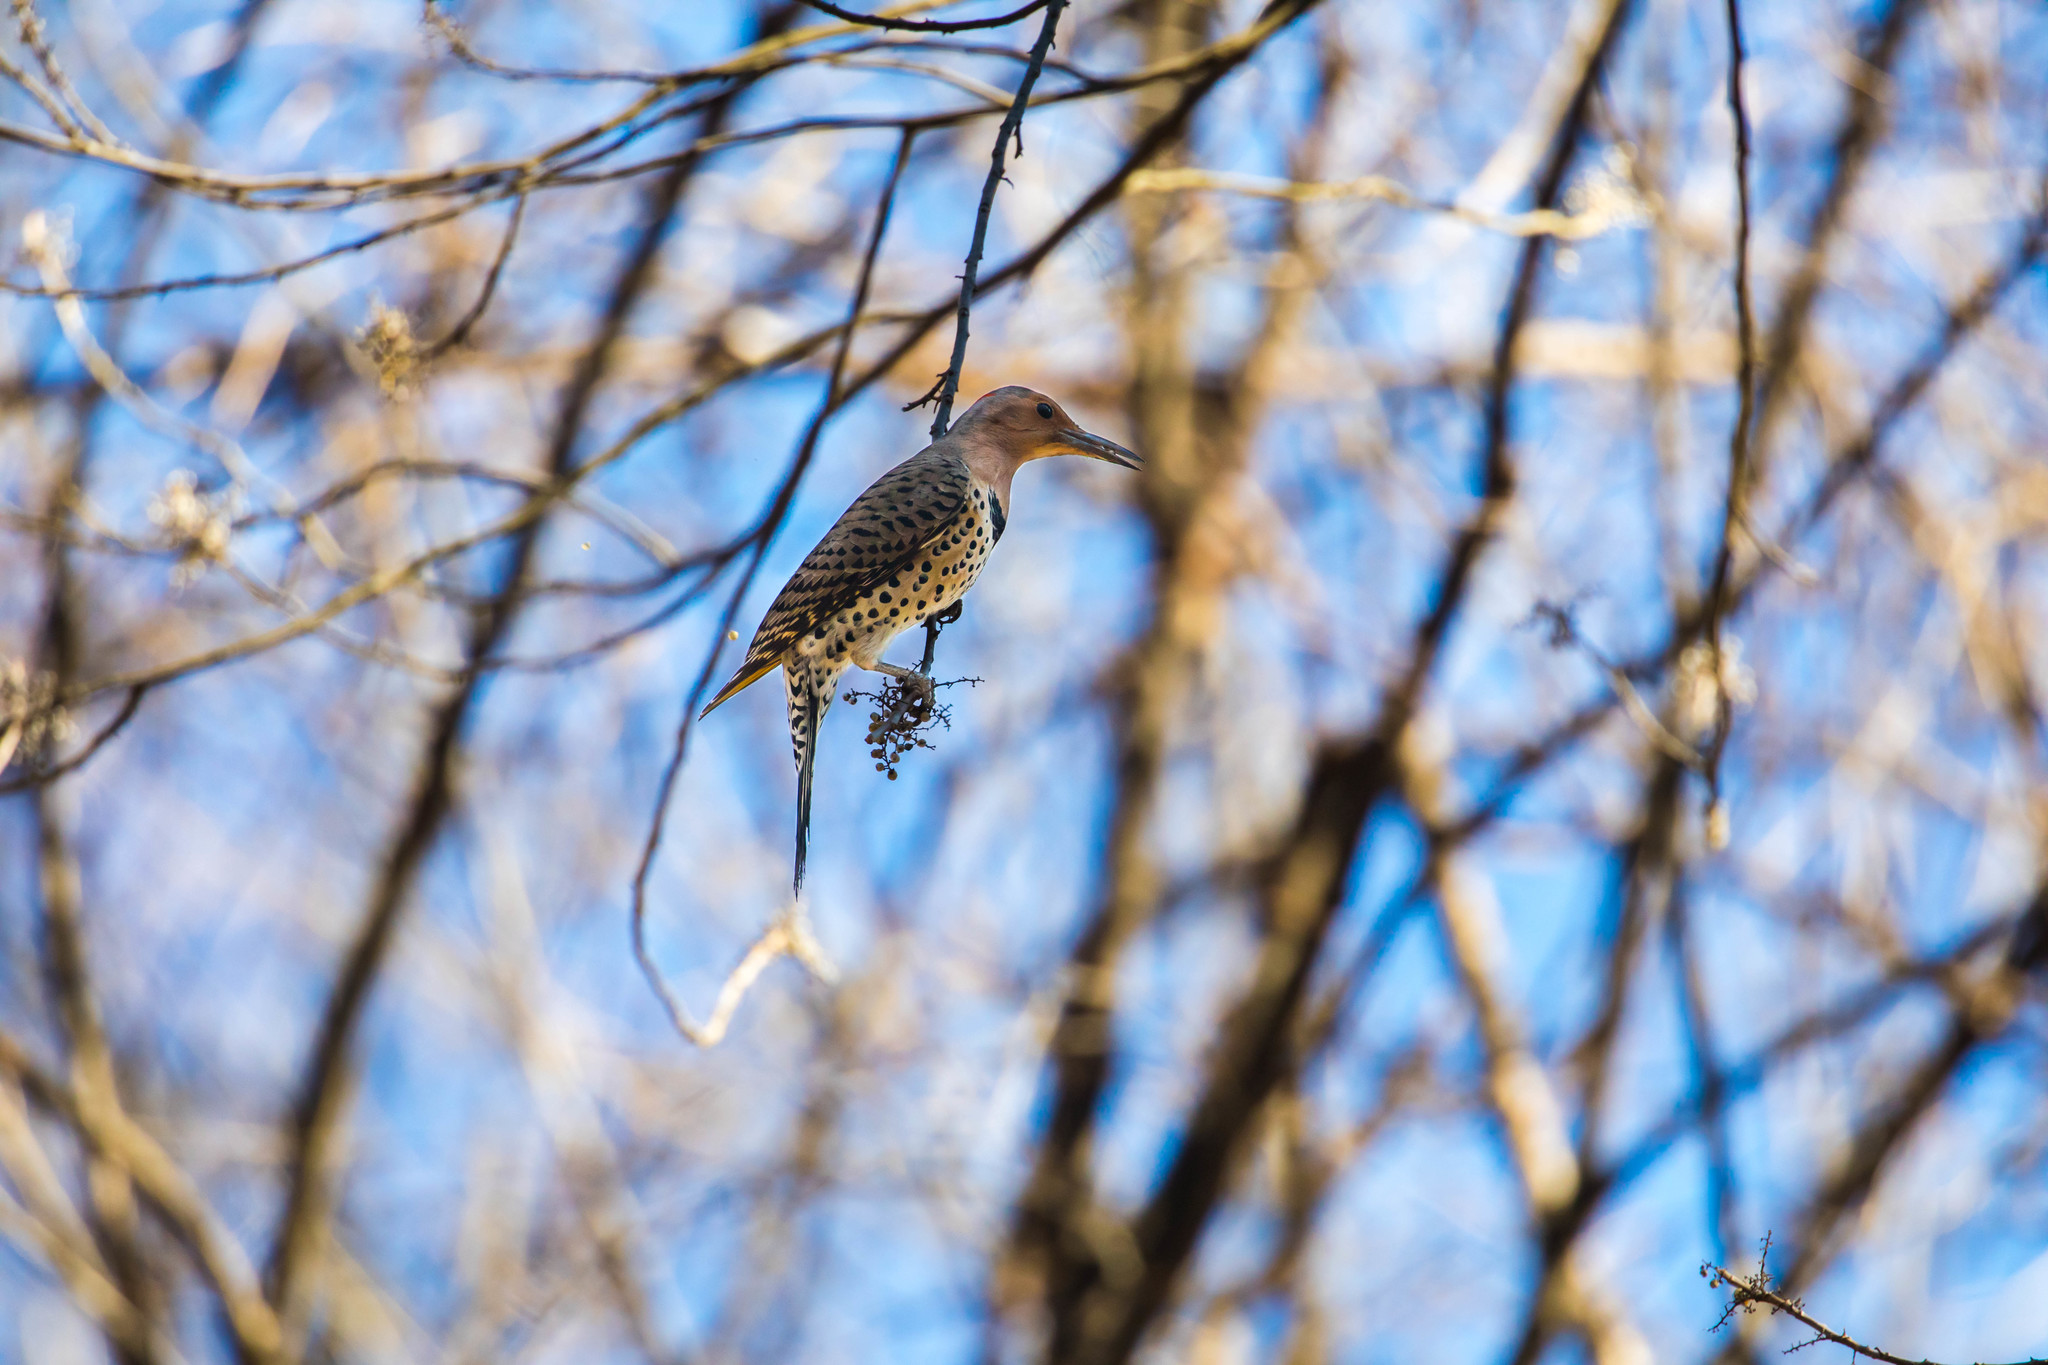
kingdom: Animalia
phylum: Chordata
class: Aves
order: Piciformes
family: Picidae
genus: Colaptes
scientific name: Colaptes auratus
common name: Northern flicker
